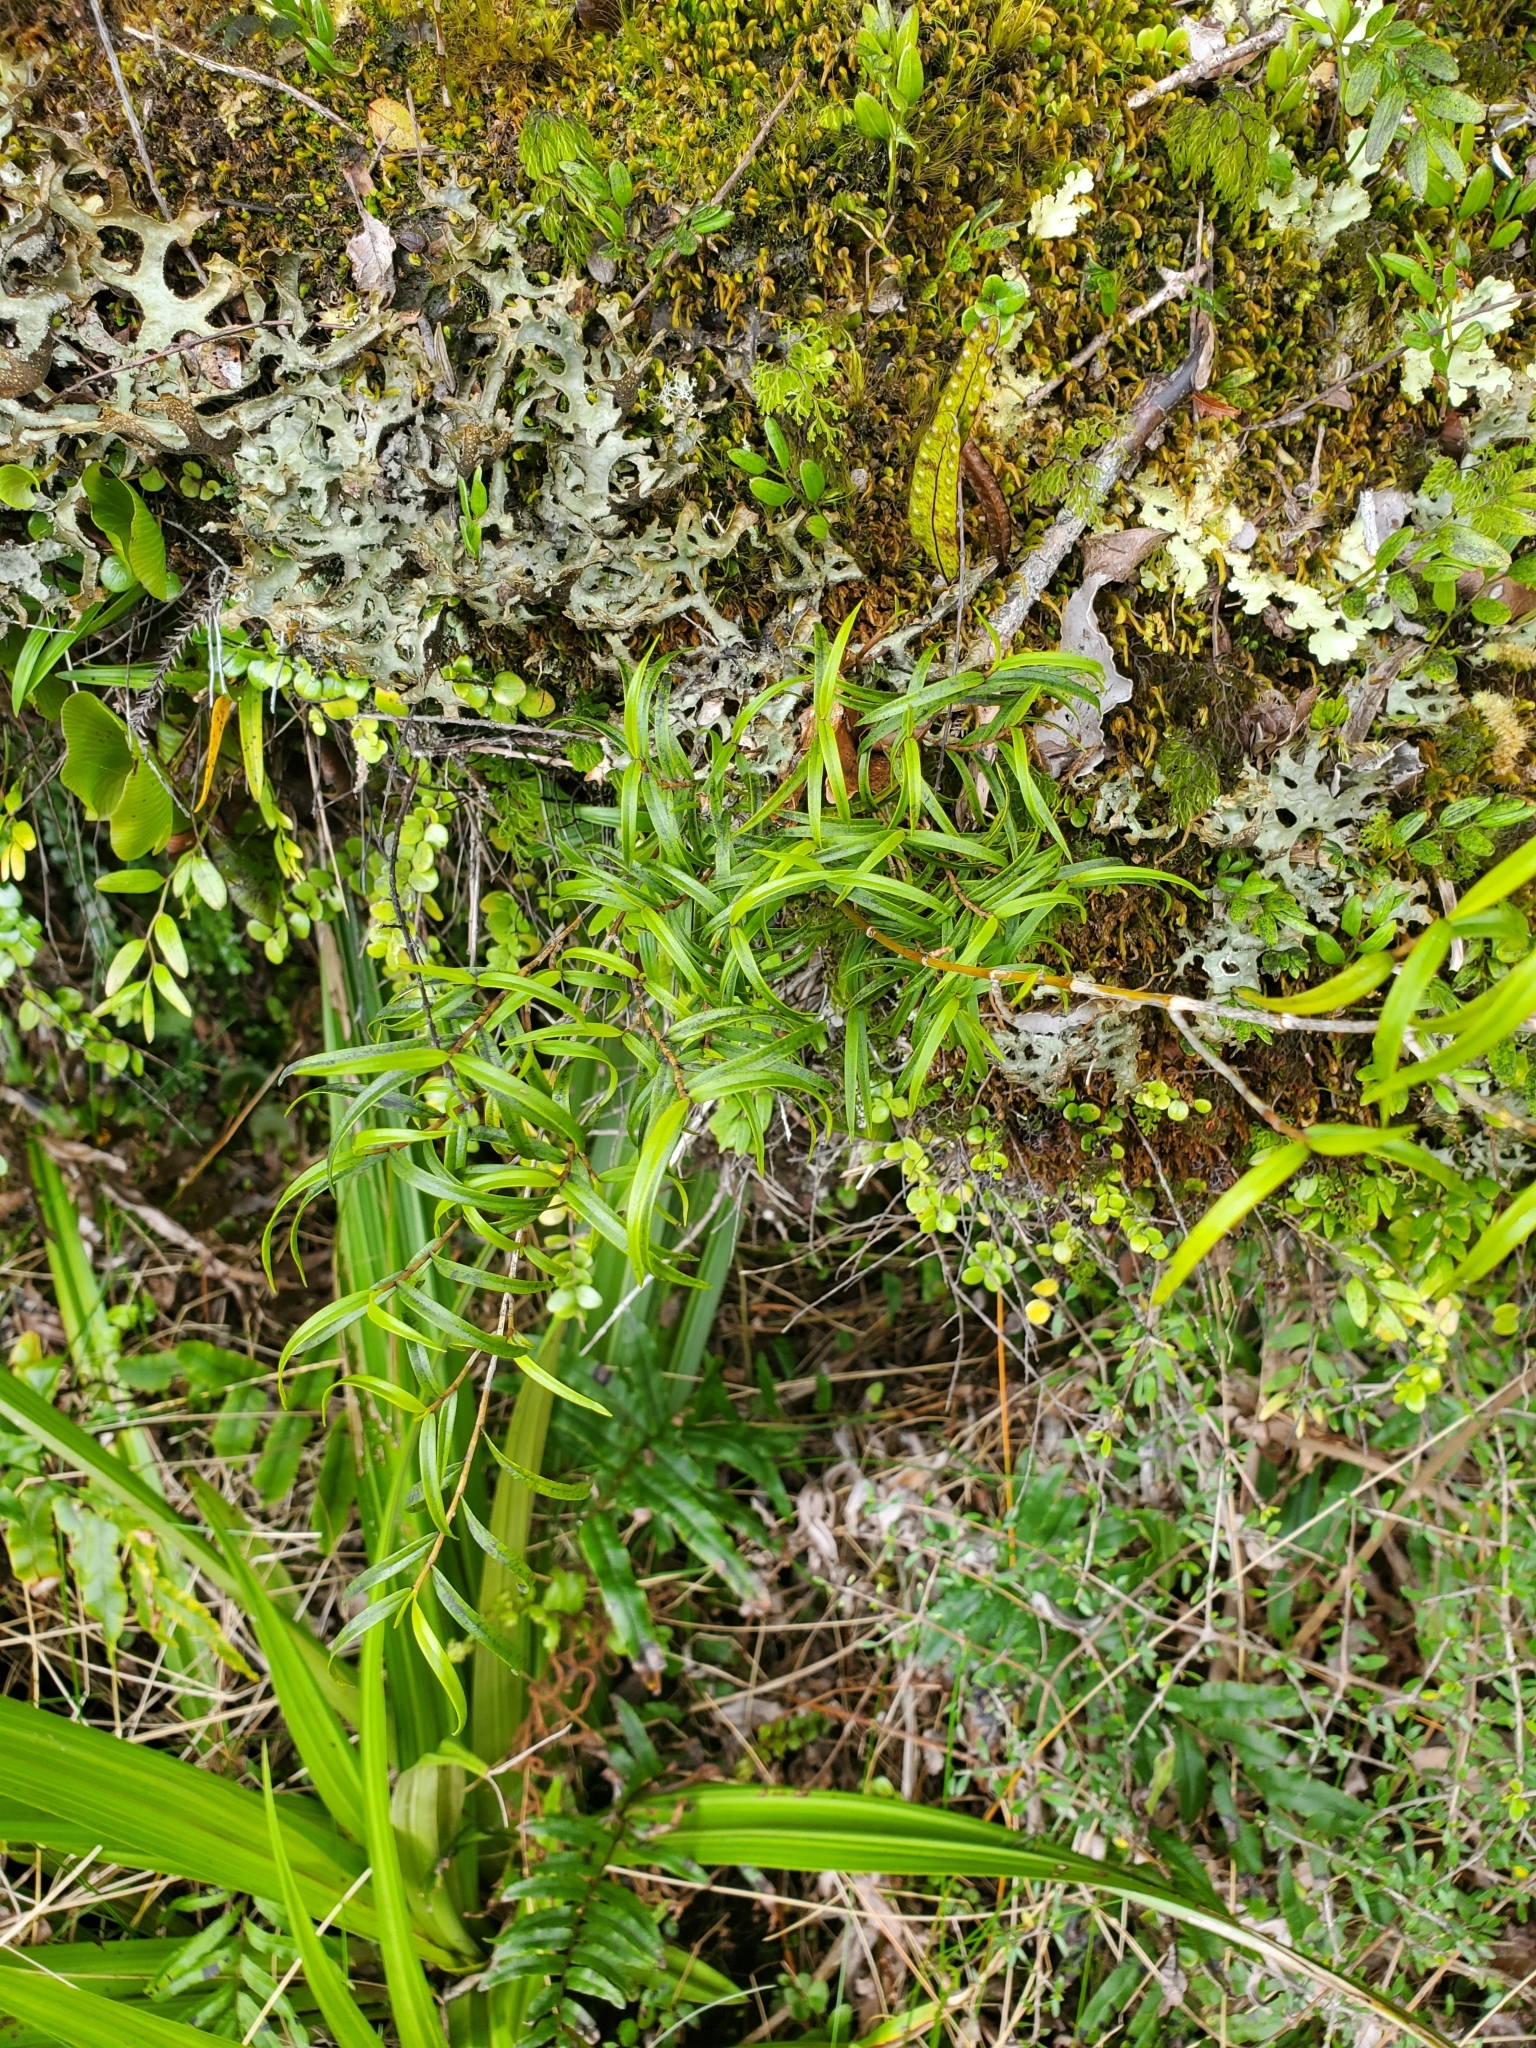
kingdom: Plantae
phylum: Tracheophyta
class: Liliopsida
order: Asparagales
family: Orchidaceae
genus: Dendrobium
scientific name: Dendrobium cunninghamii
